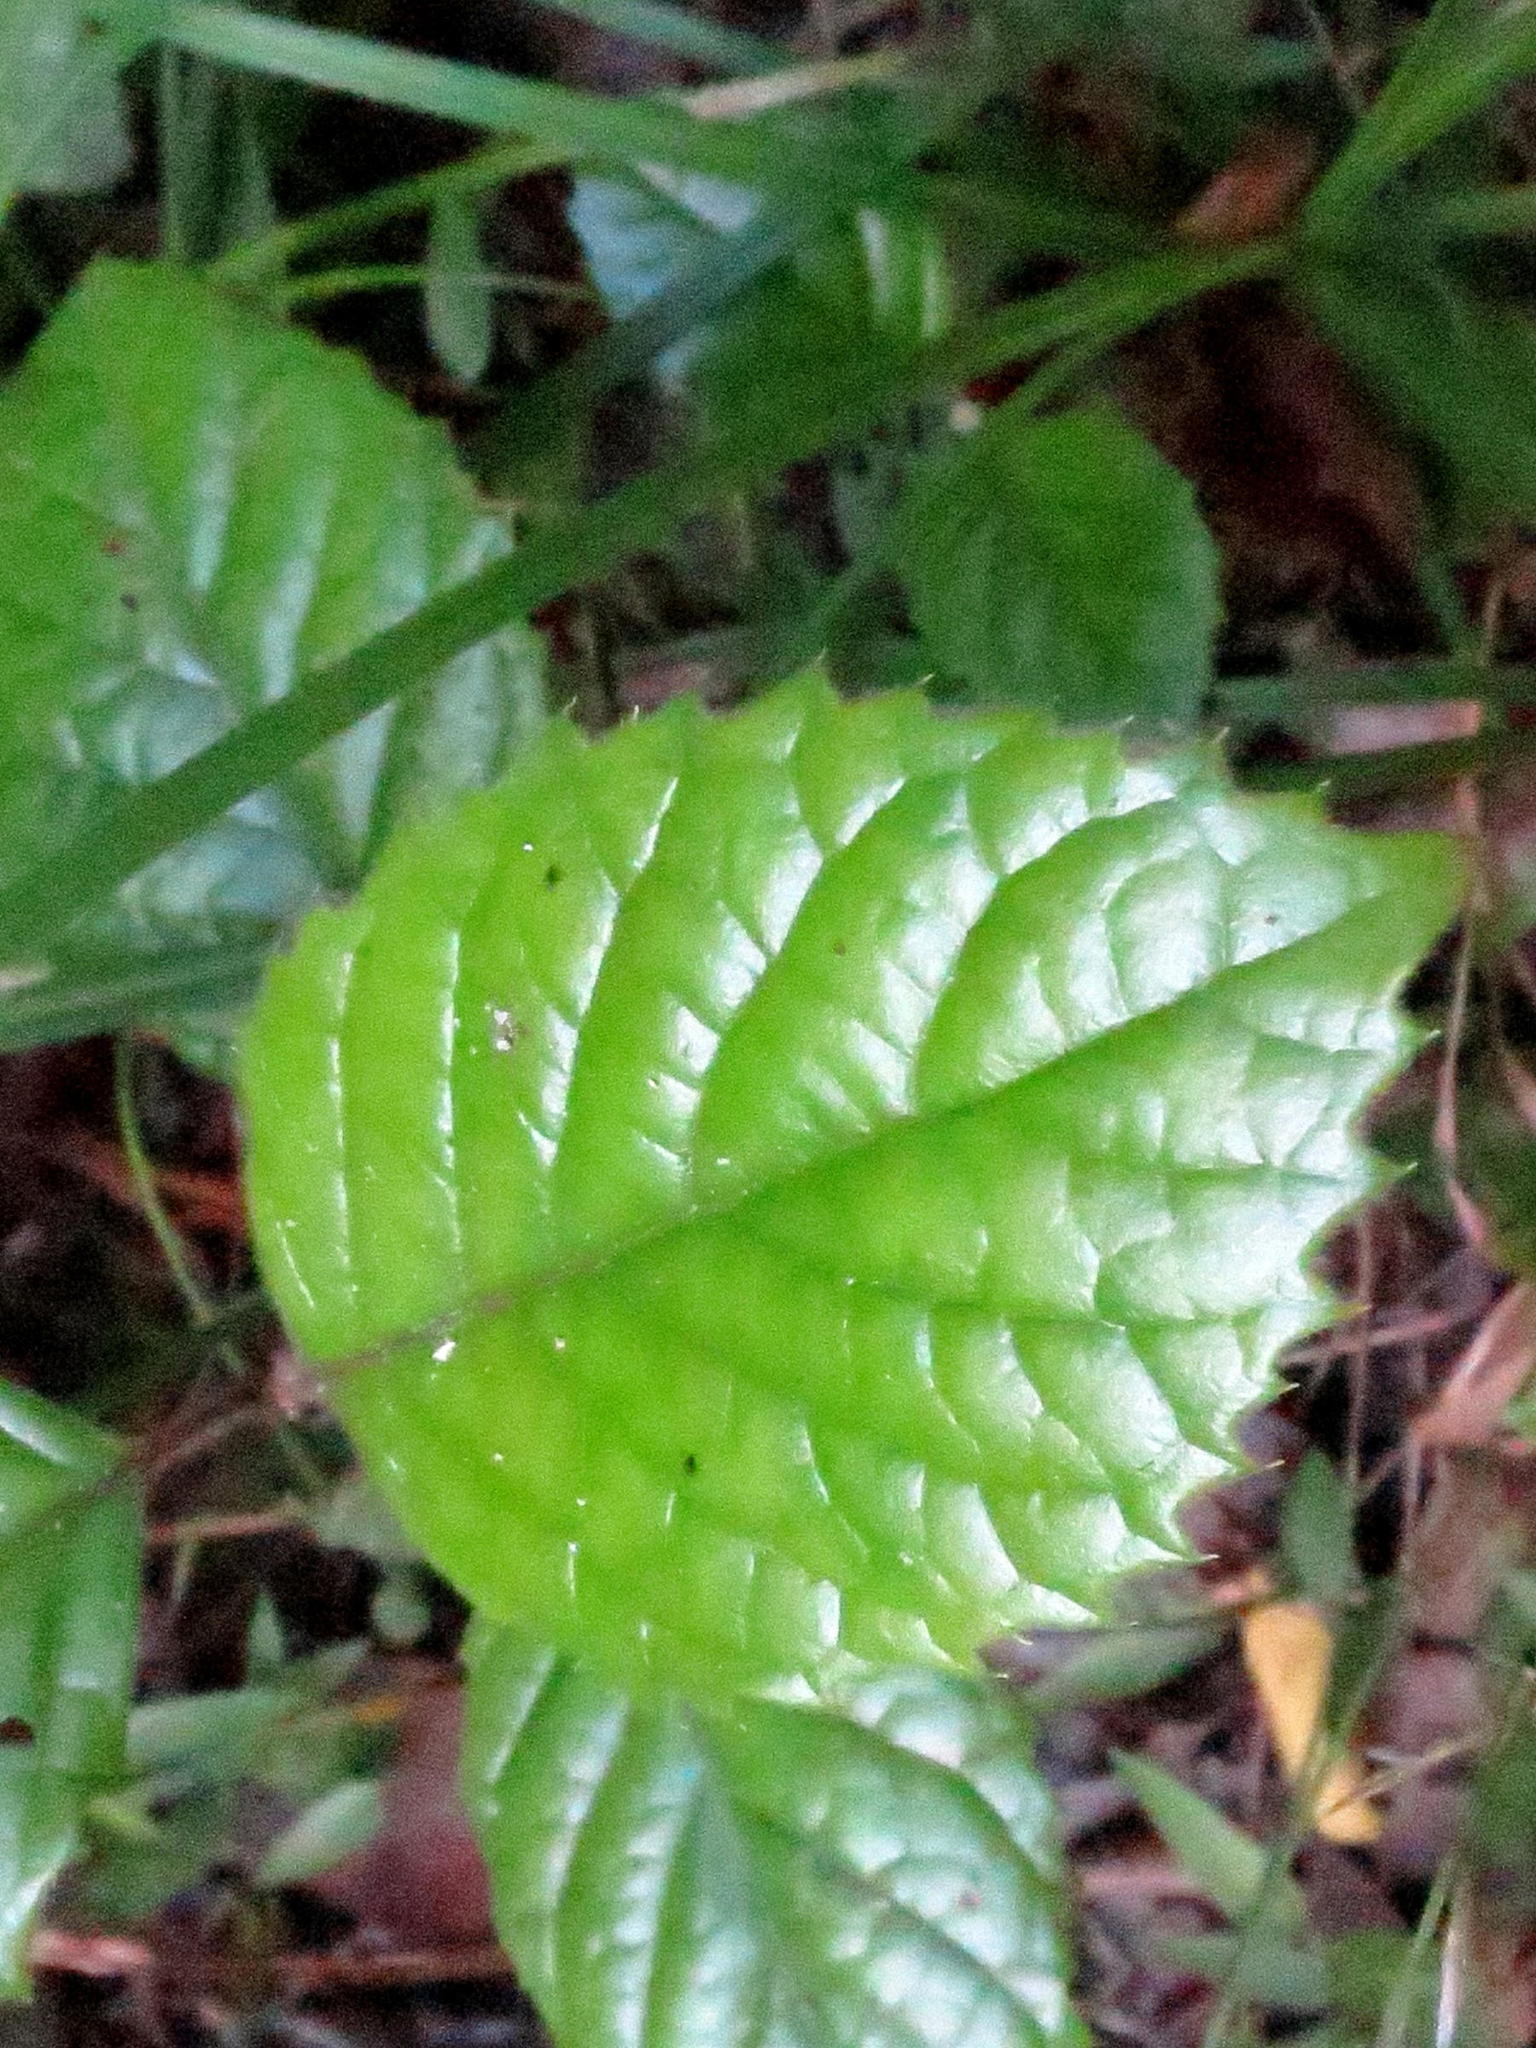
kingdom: Plantae
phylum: Tracheophyta
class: Magnoliopsida
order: Cornales
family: Curtisiaceae
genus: Curtisia
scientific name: Curtisia dentata
